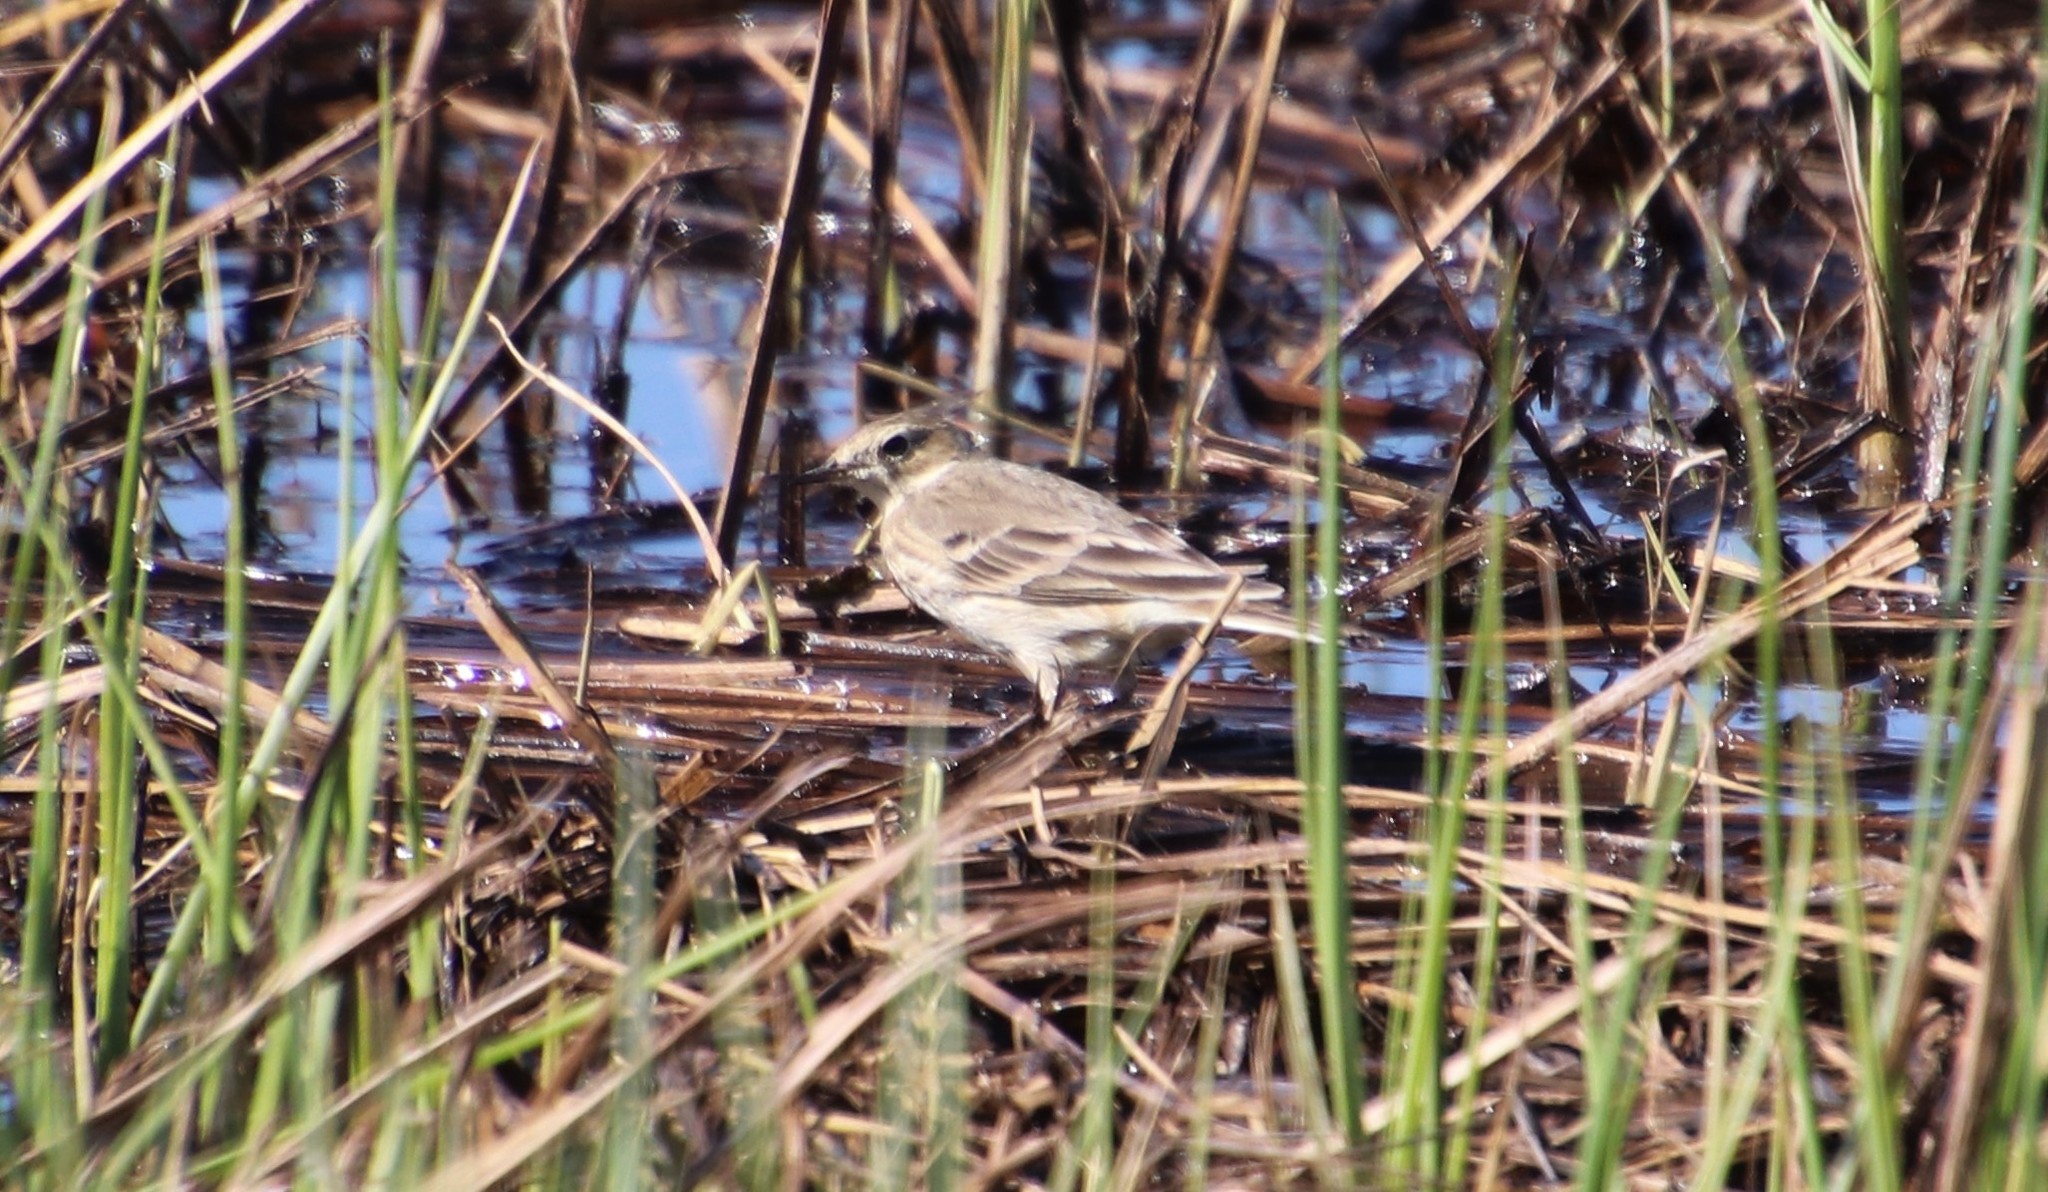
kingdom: Animalia
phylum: Chordata
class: Aves
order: Passeriformes
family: Motacillidae
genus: Anthus
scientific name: Anthus rubescens
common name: Buff-bellied pipit
